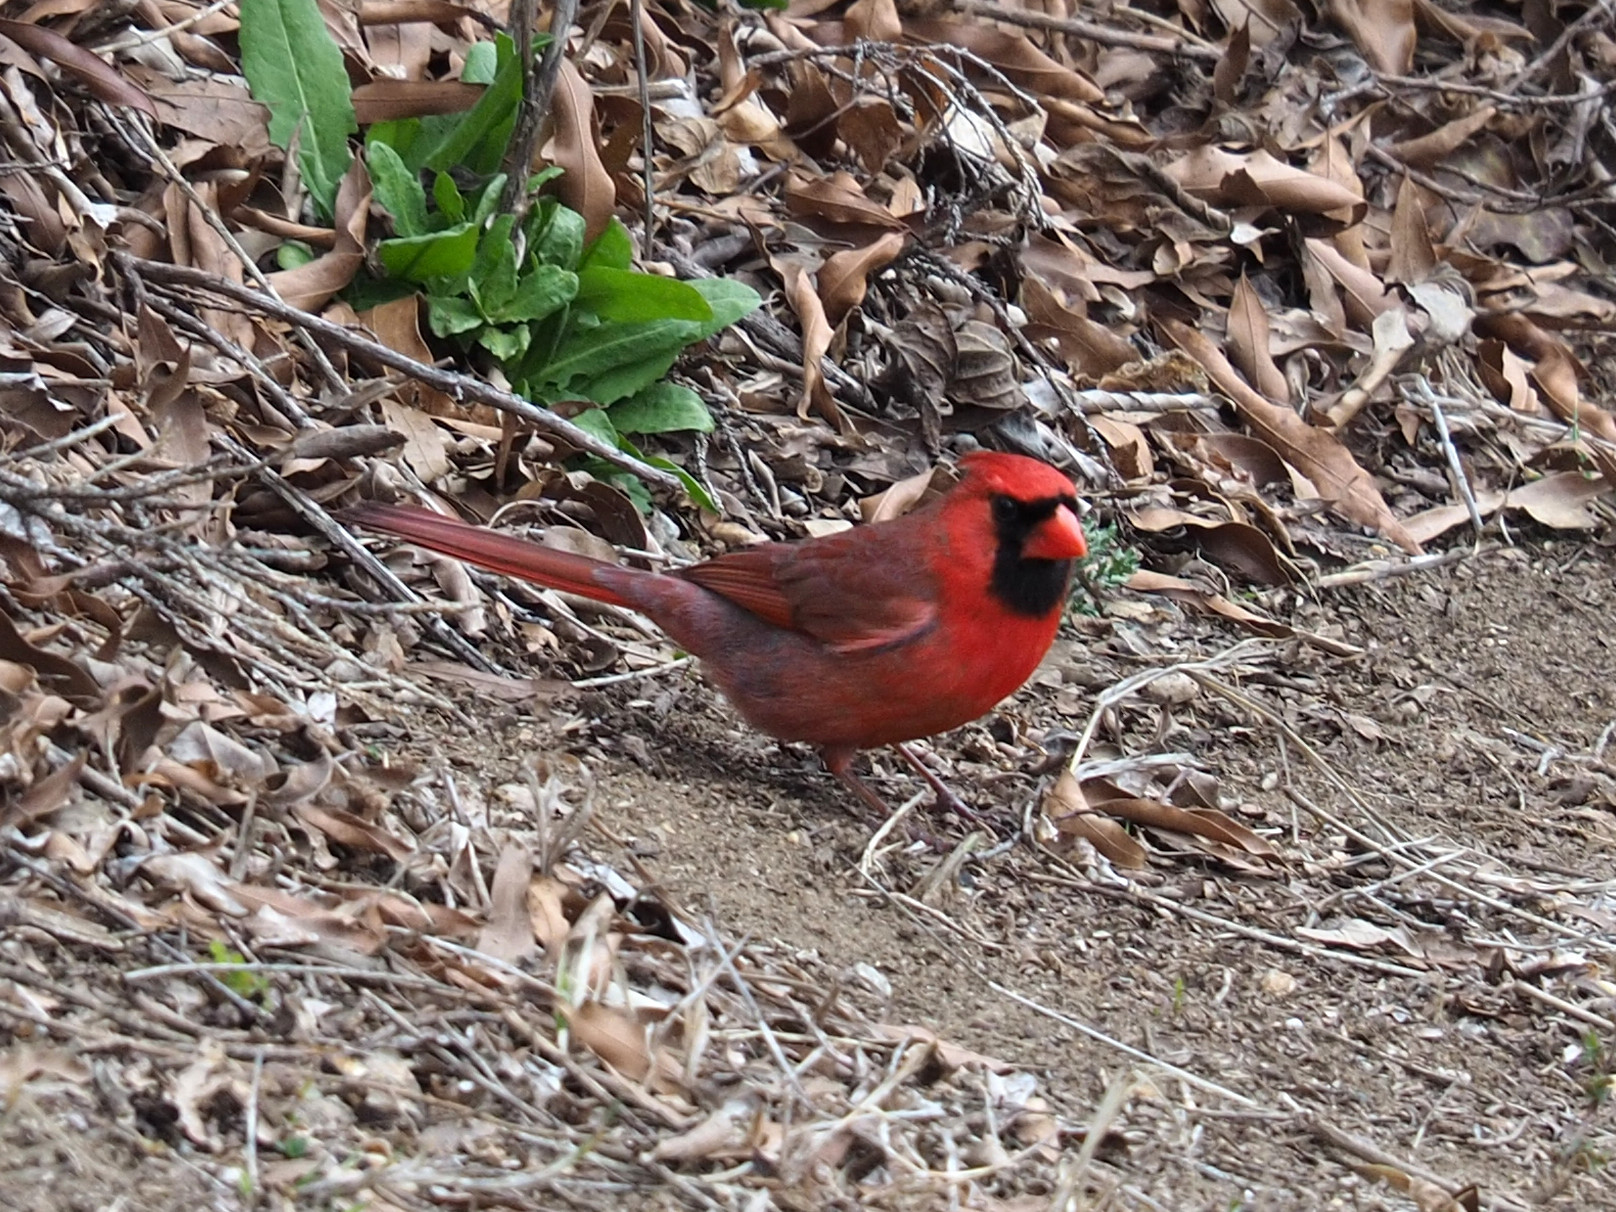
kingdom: Animalia
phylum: Chordata
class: Aves
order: Passeriformes
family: Cardinalidae
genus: Cardinalis
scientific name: Cardinalis cardinalis
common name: Northern cardinal
